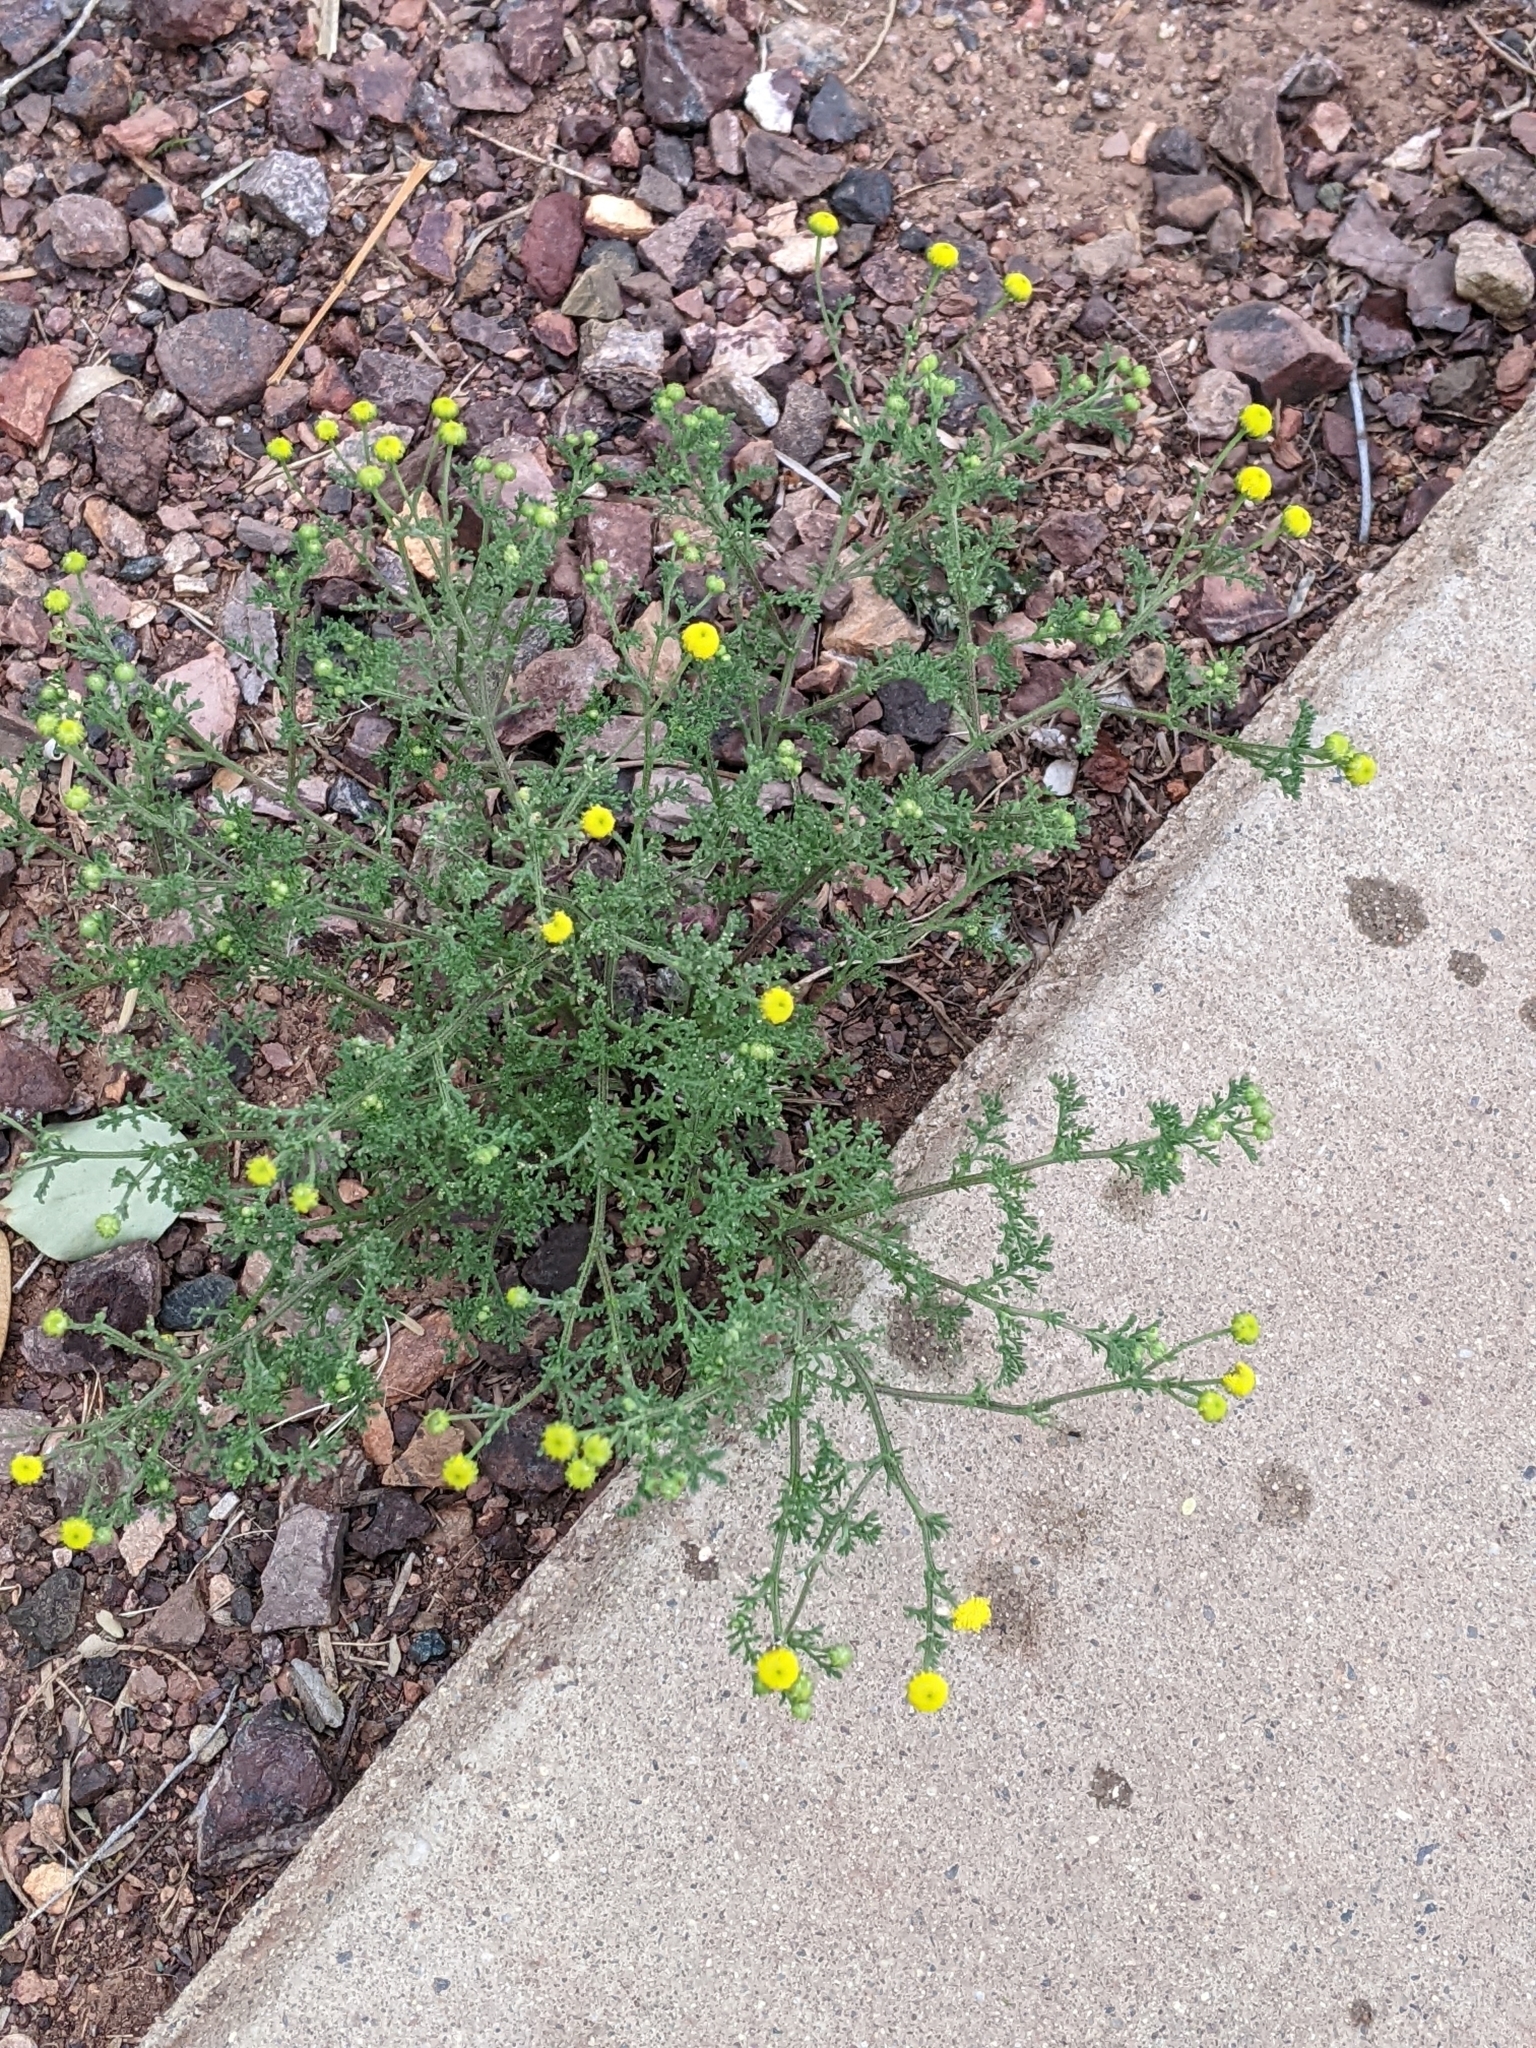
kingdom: Plantae
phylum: Tracheophyta
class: Magnoliopsida
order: Asterales
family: Asteraceae
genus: Oncosiphon
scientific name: Oncosiphon pilulifer
